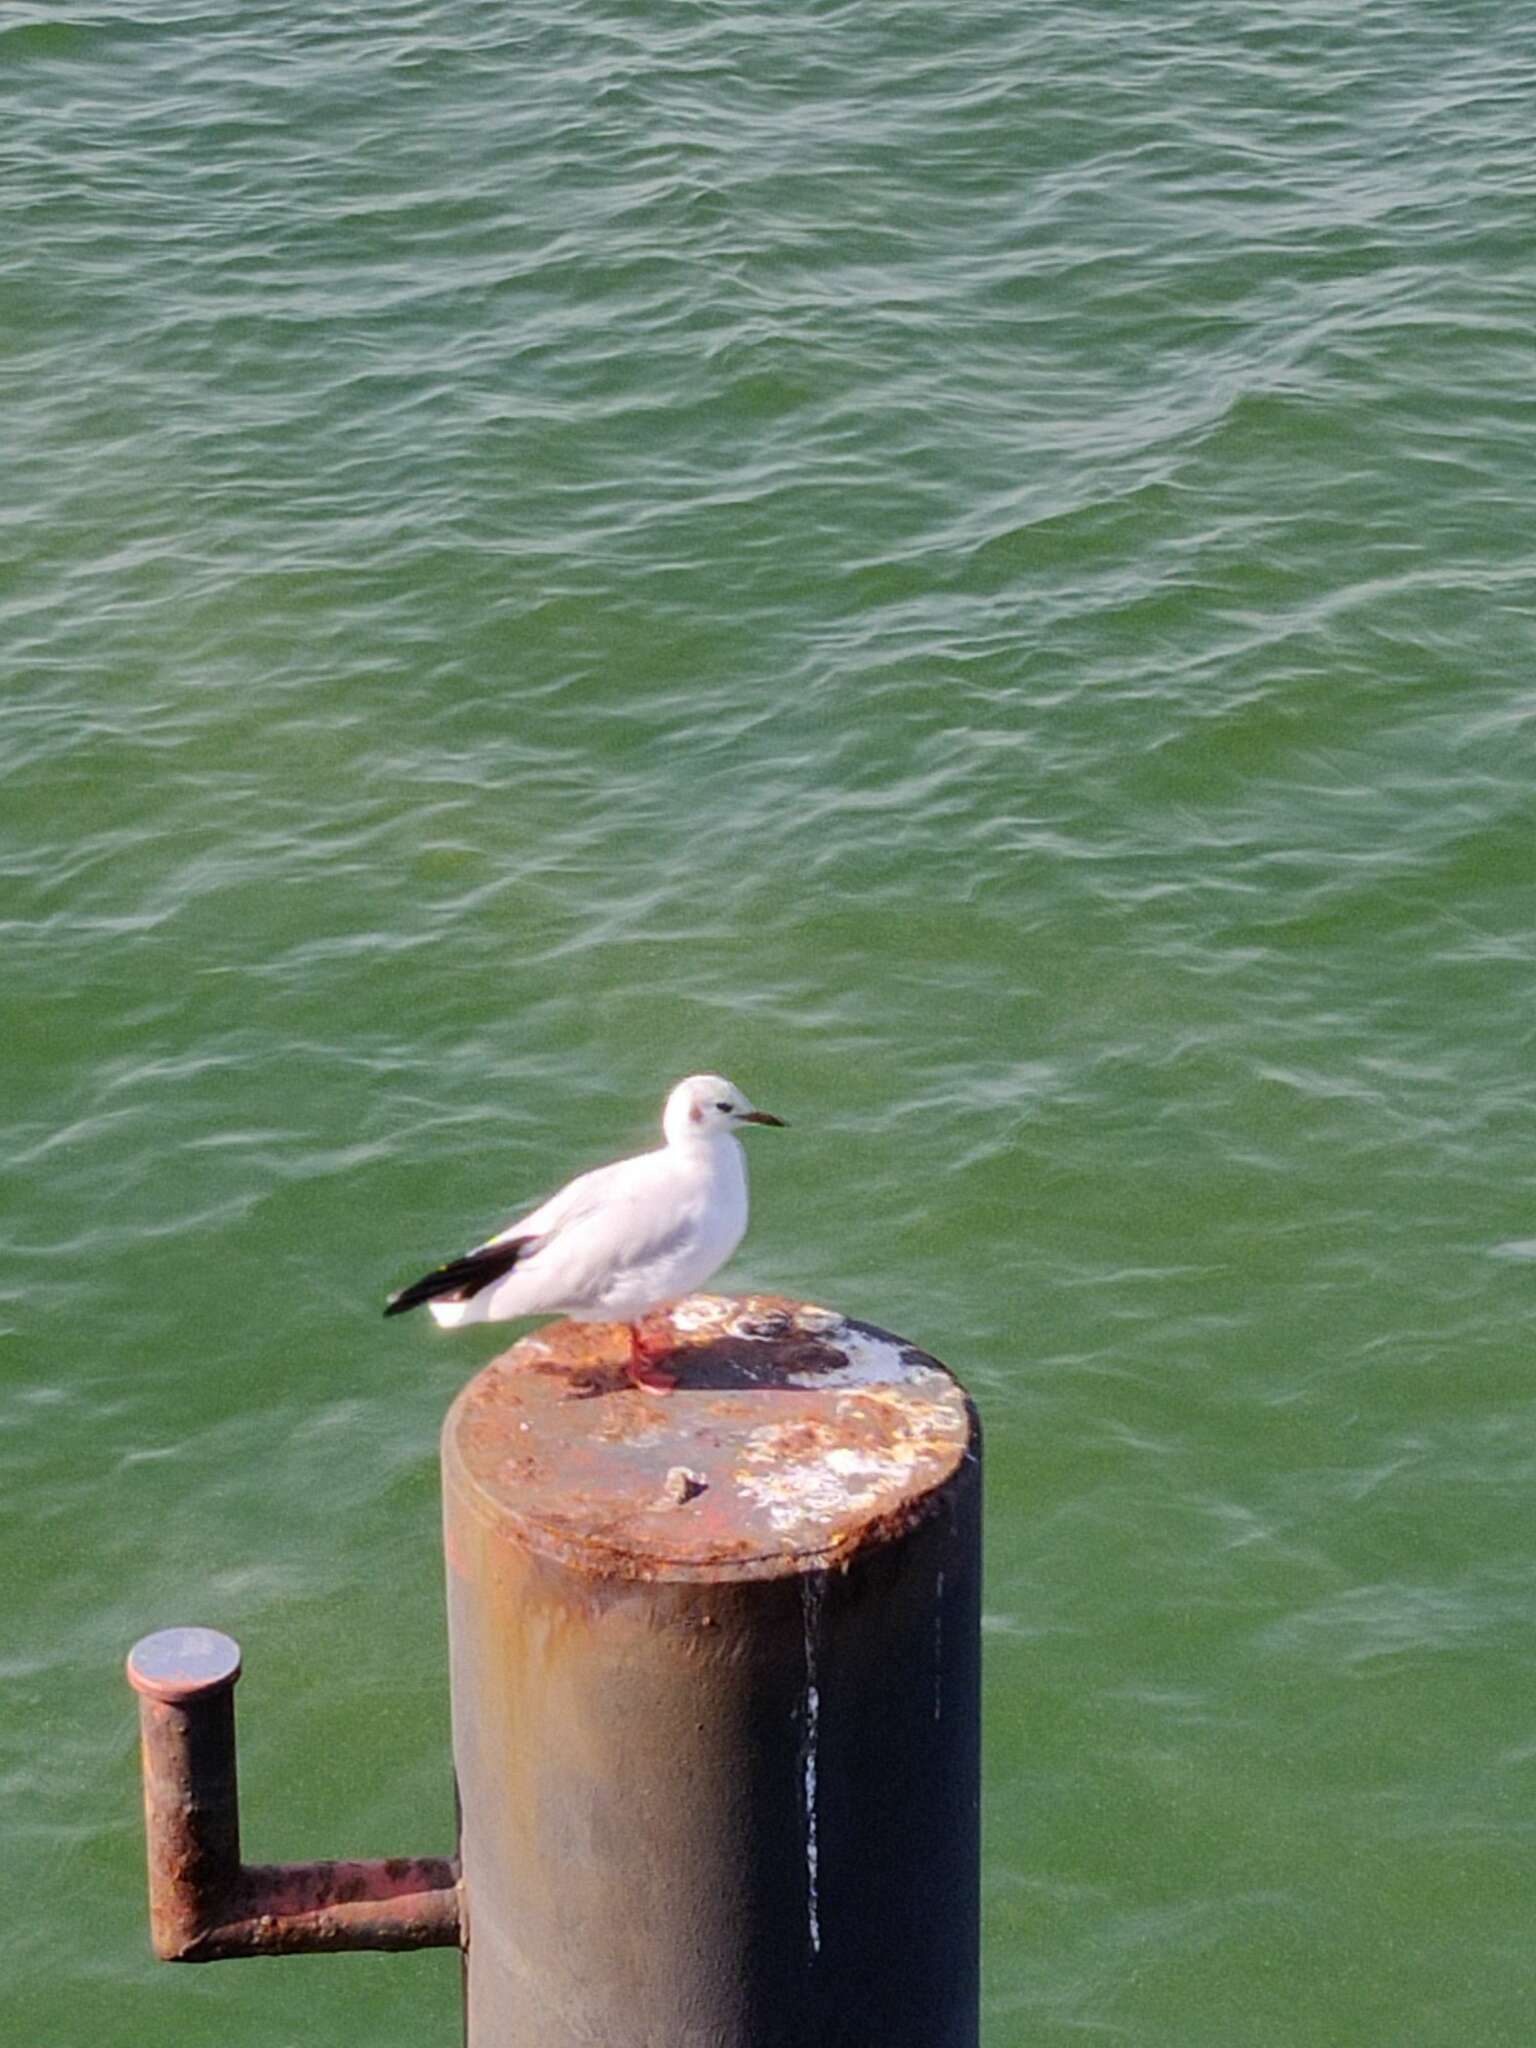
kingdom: Animalia
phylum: Chordata
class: Aves
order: Charadriiformes
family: Laridae
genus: Chroicocephalus
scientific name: Chroicocephalus ridibundus
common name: Black-headed gull
